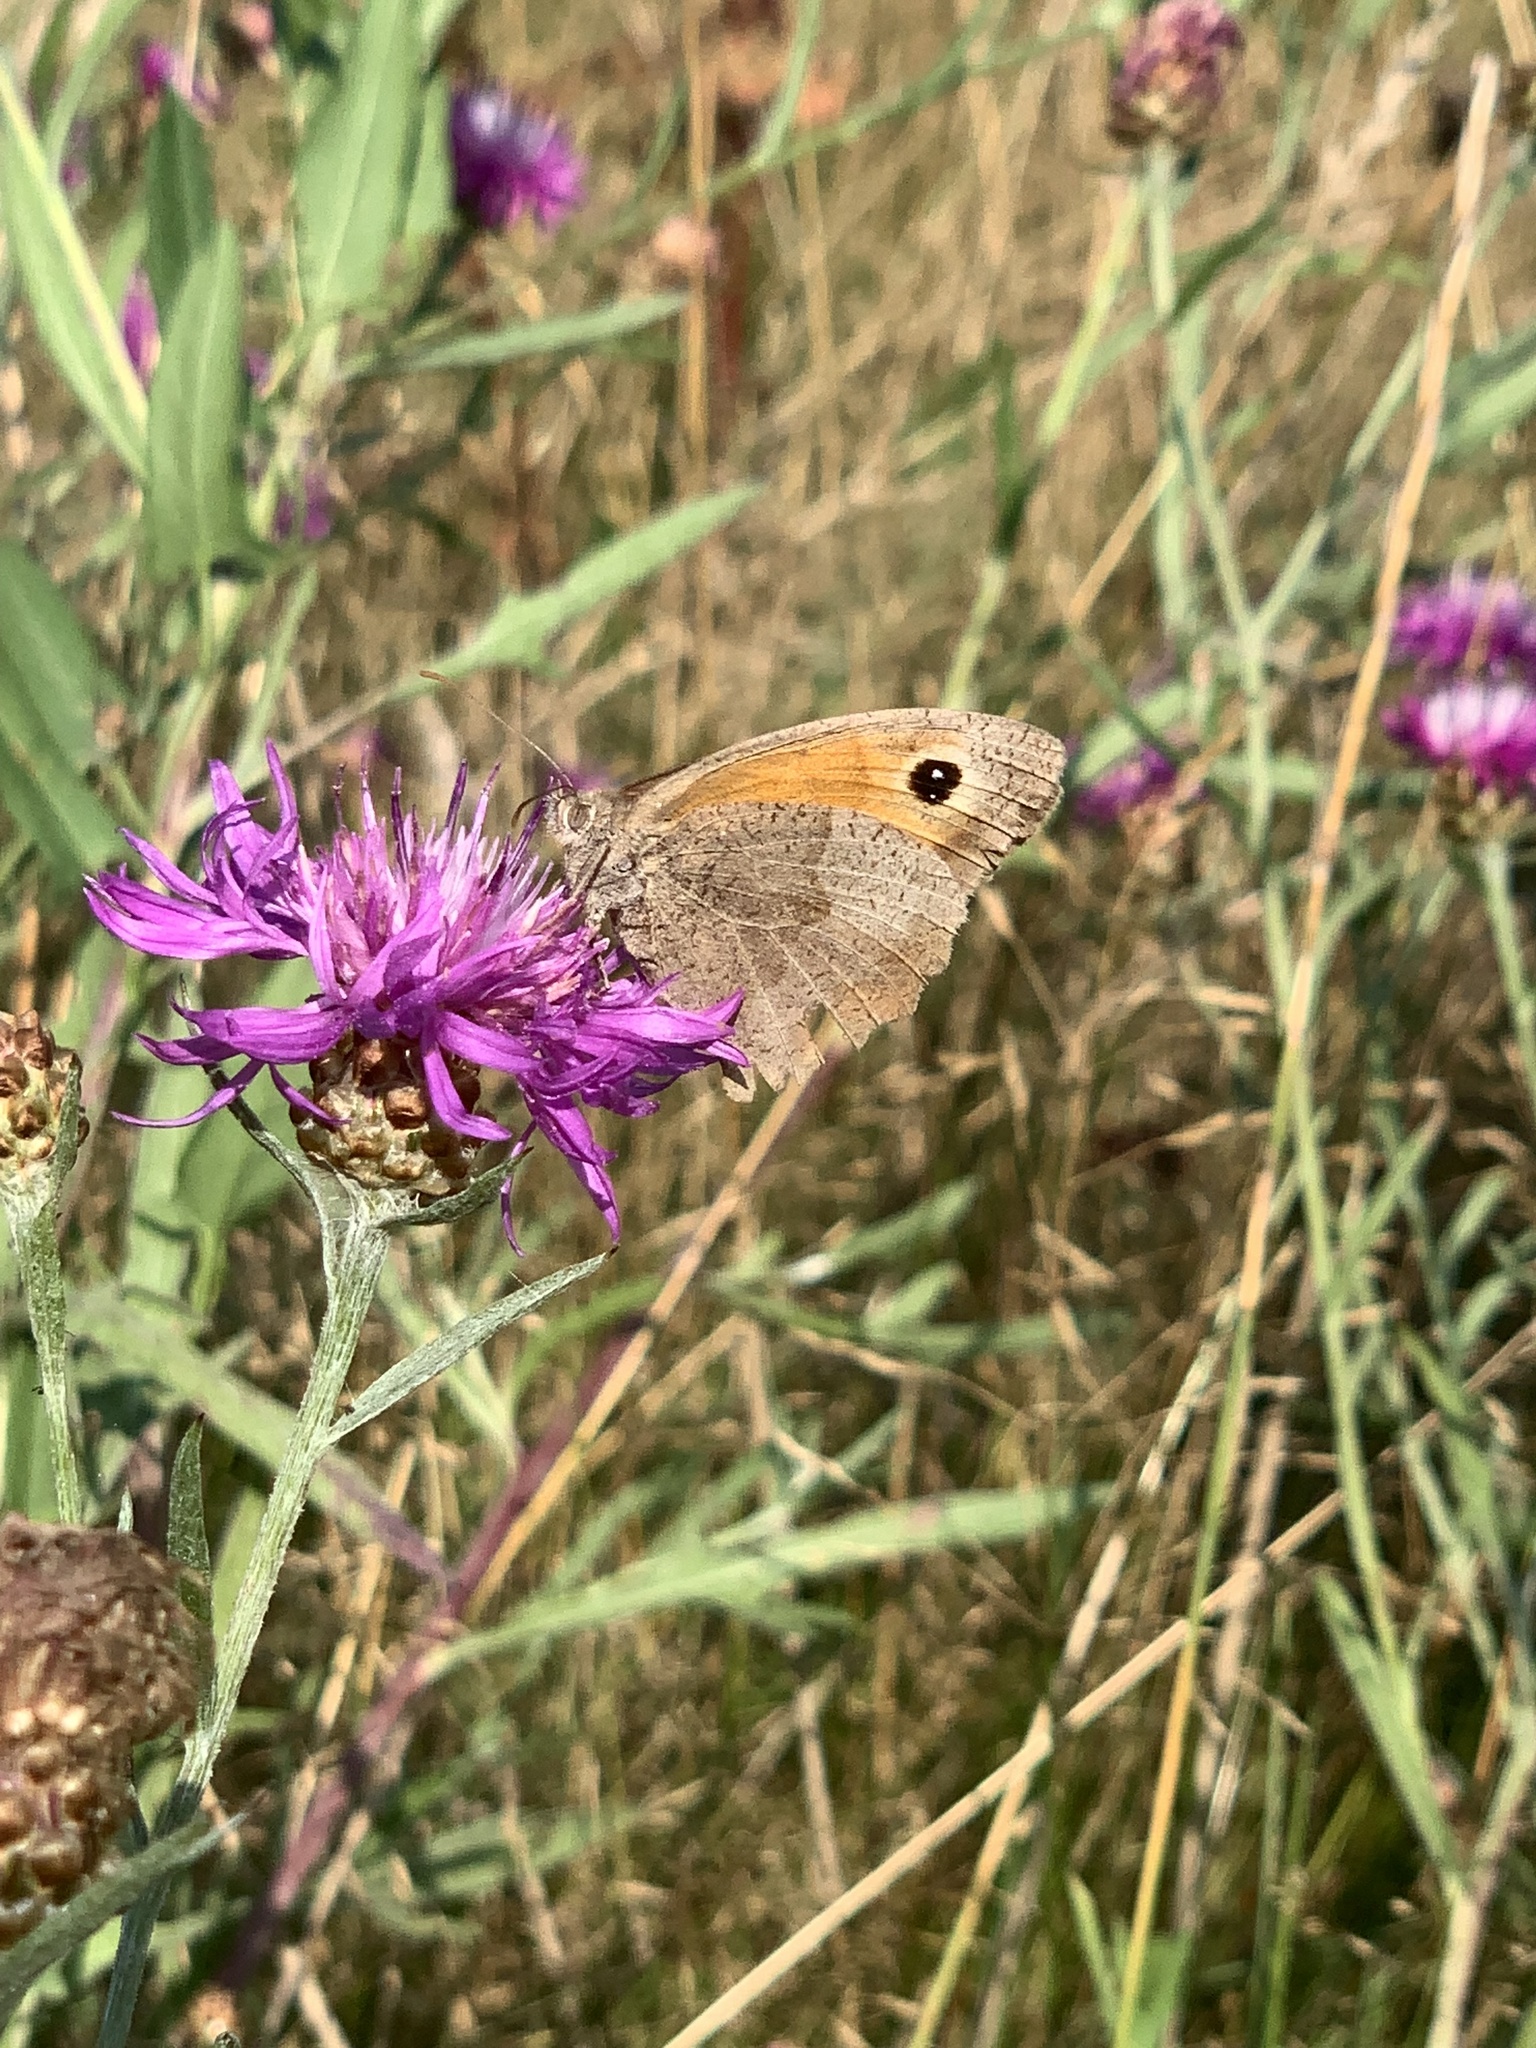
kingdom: Animalia
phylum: Arthropoda
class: Insecta
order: Lepidoptera
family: Nymphalidae
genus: Maniola
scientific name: Maniola jurtina
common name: Meadow brown
